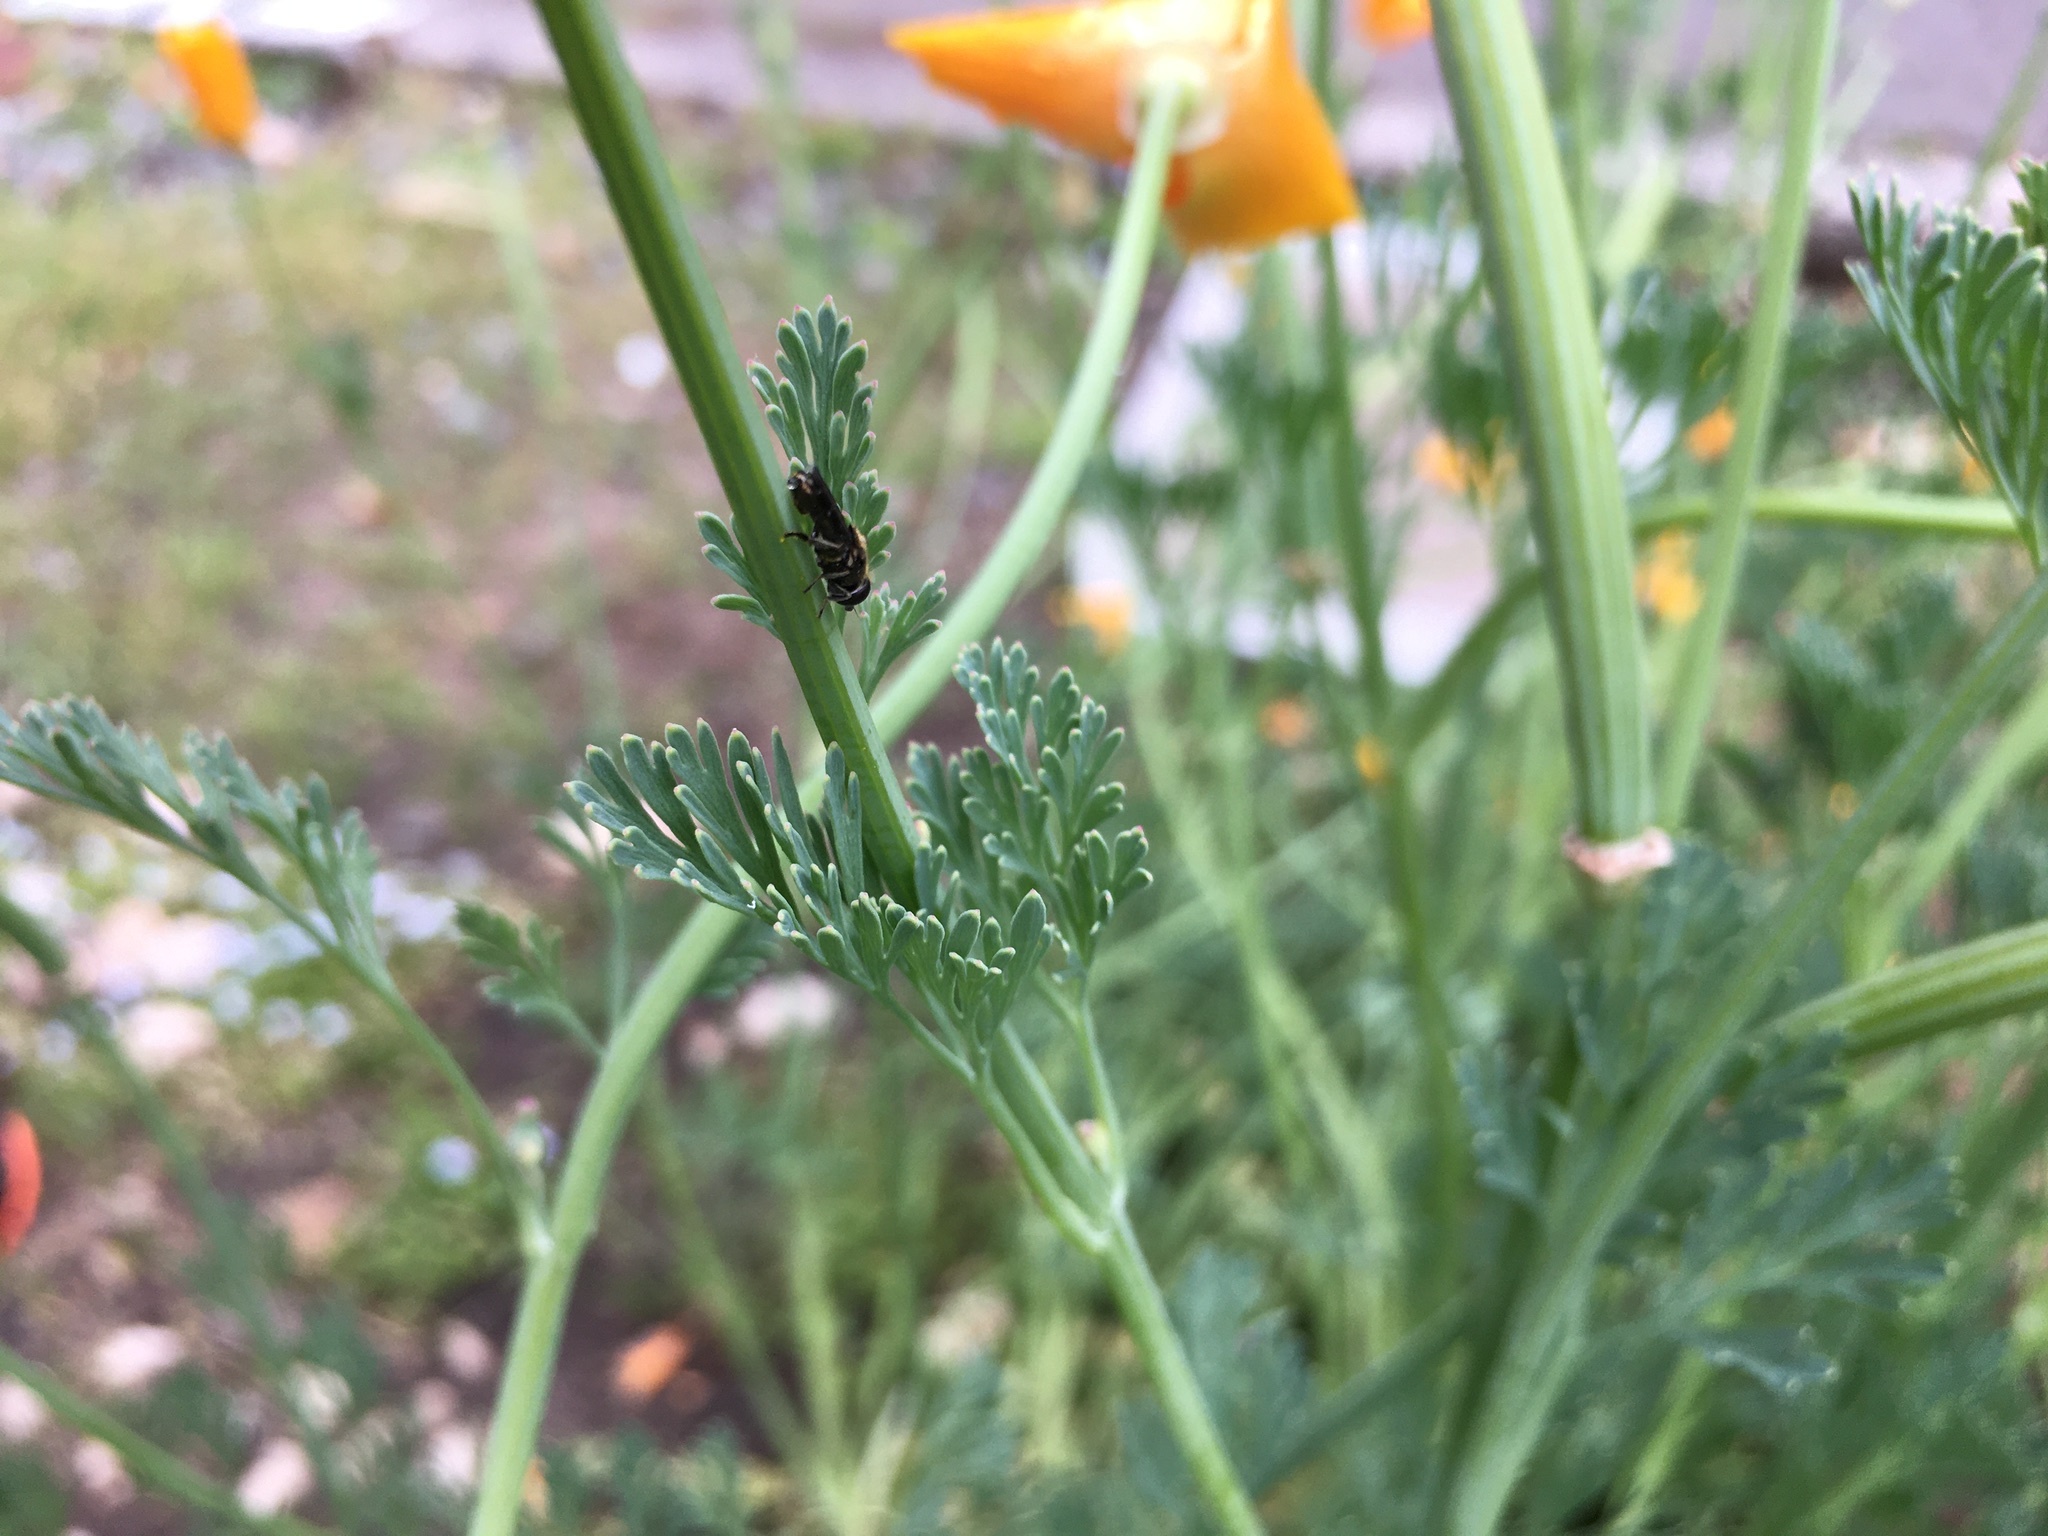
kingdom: Animalia
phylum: Arthropoda
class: Insecta
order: Diptera
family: Syrphidae
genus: Eumerus
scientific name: Eumerus
